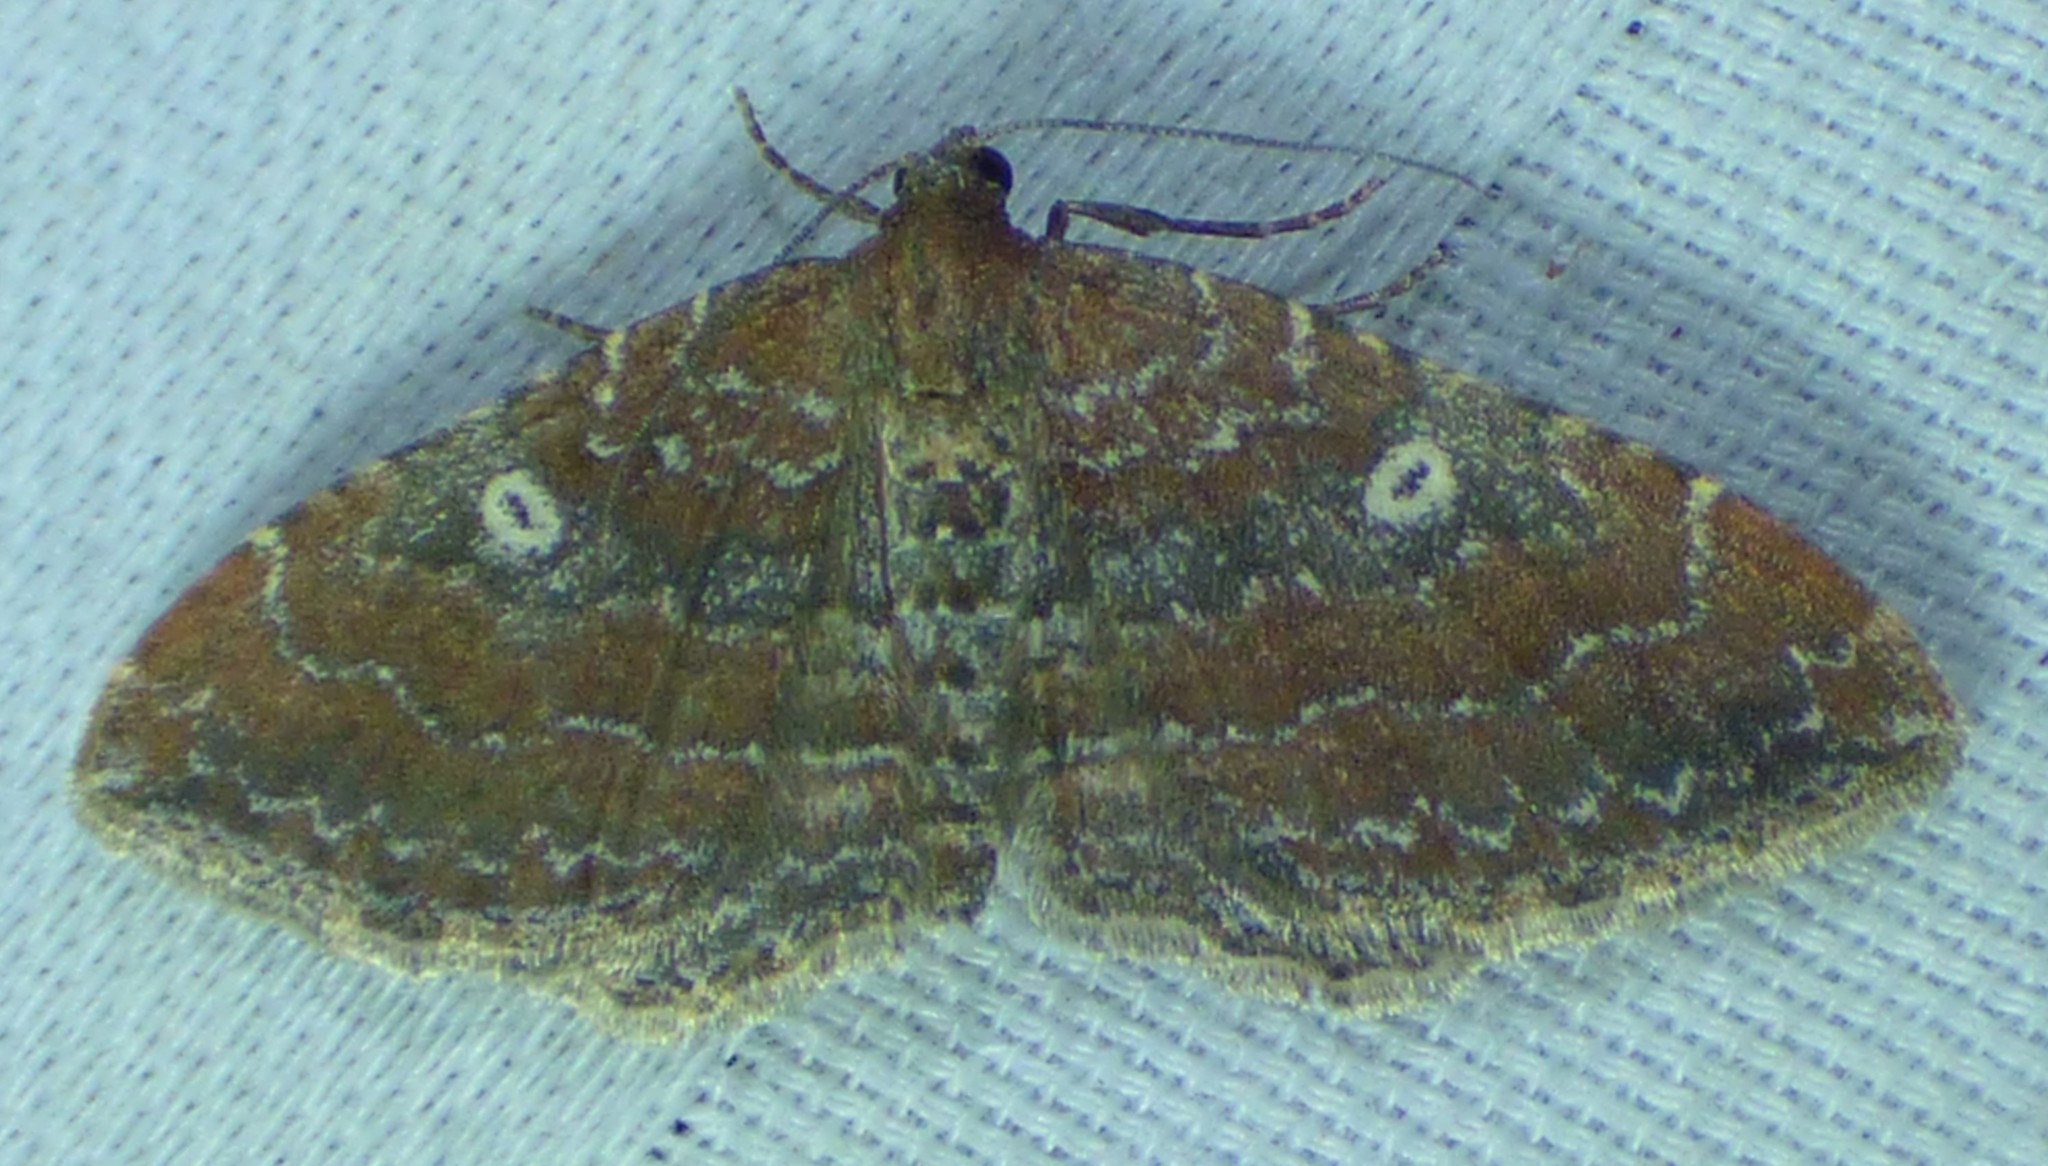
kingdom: Animalia
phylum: Arthropoda
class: Insecta
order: Lepidoptera
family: Geometridae
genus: Orthonama
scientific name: Orthonama obstipata
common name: The gem
